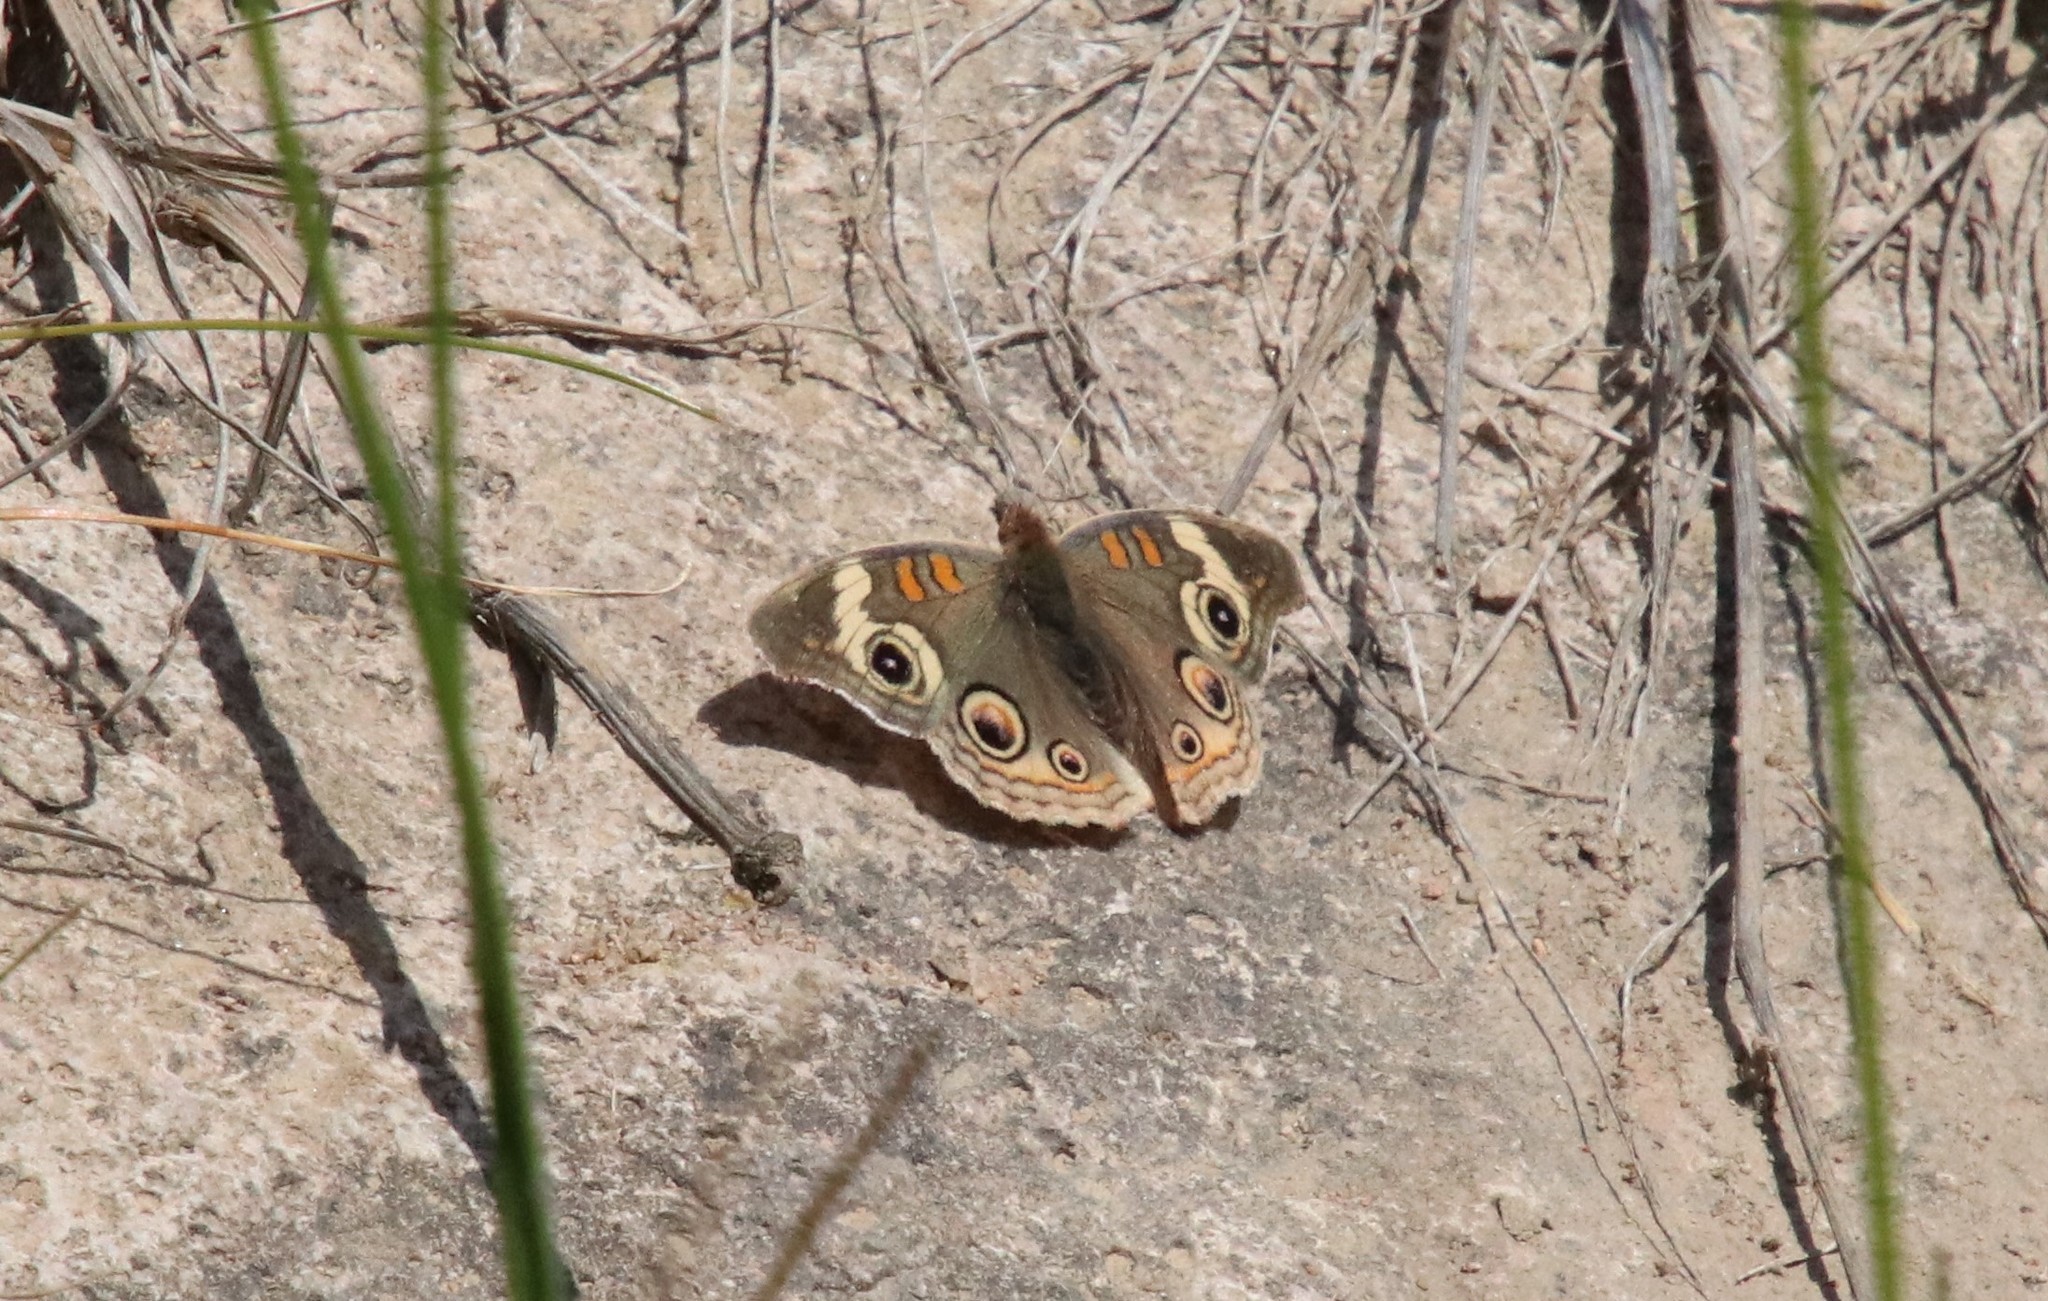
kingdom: Animalia
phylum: Arthropoda
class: Insecta
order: Lepidoptera
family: Nymphalidae
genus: Junonia
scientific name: Junonia grisea
